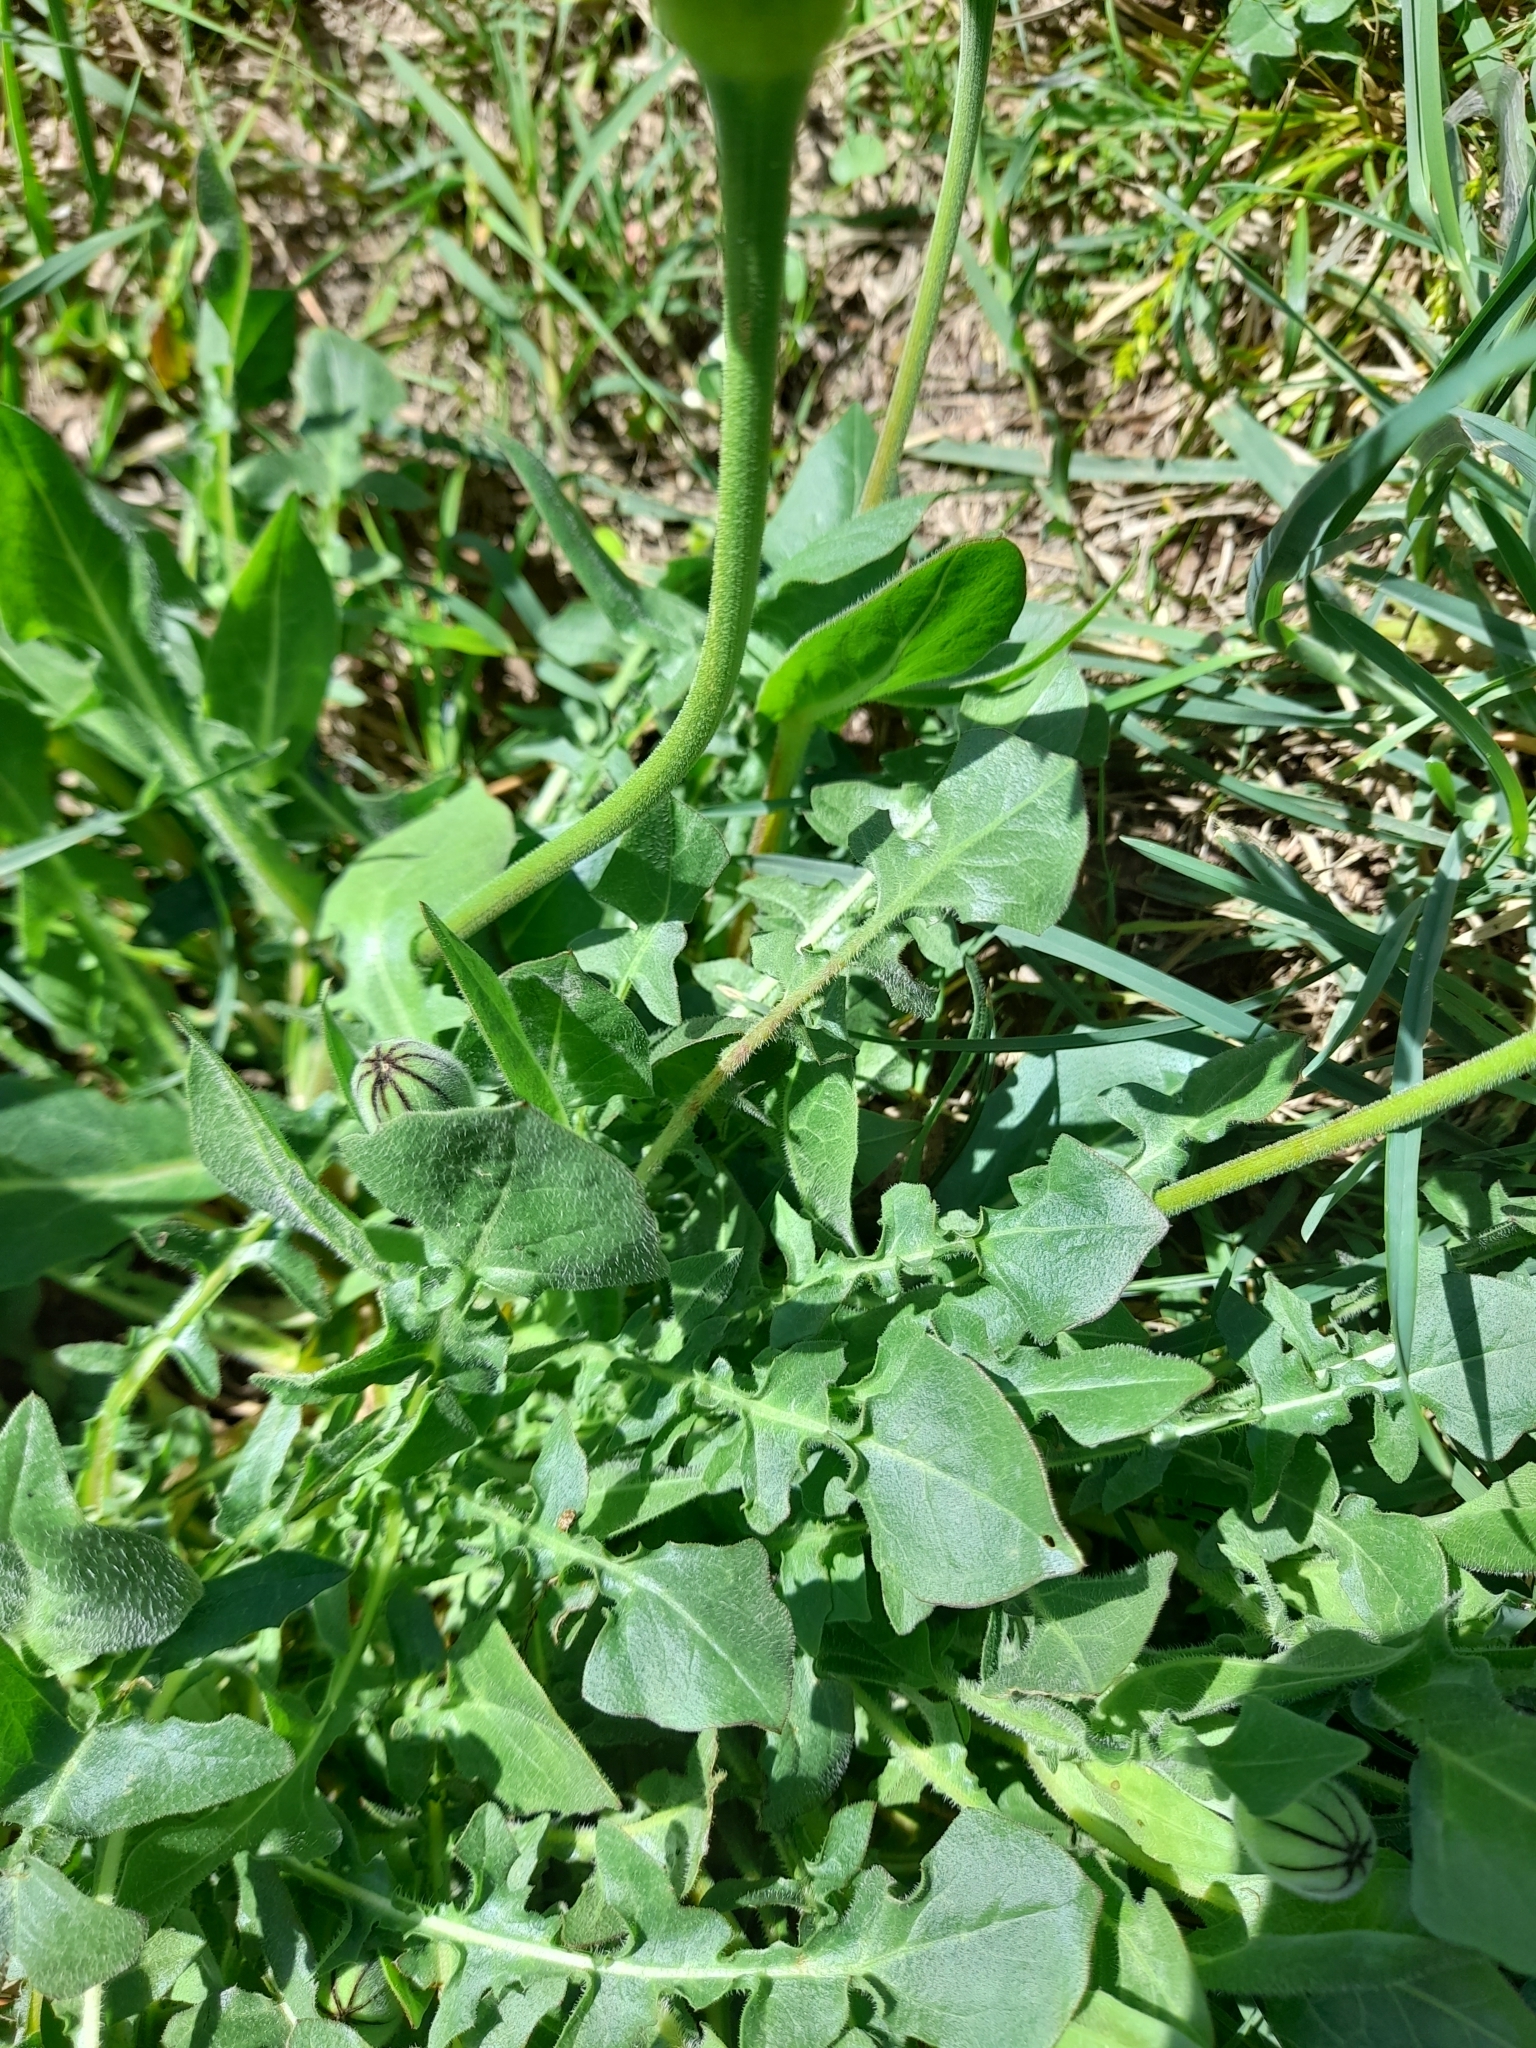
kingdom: Plantae
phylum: Tracheophyta
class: Magnoliopsida
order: Asterales
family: Asteraceae
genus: Urospermum
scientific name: Urospermum dalechampii
